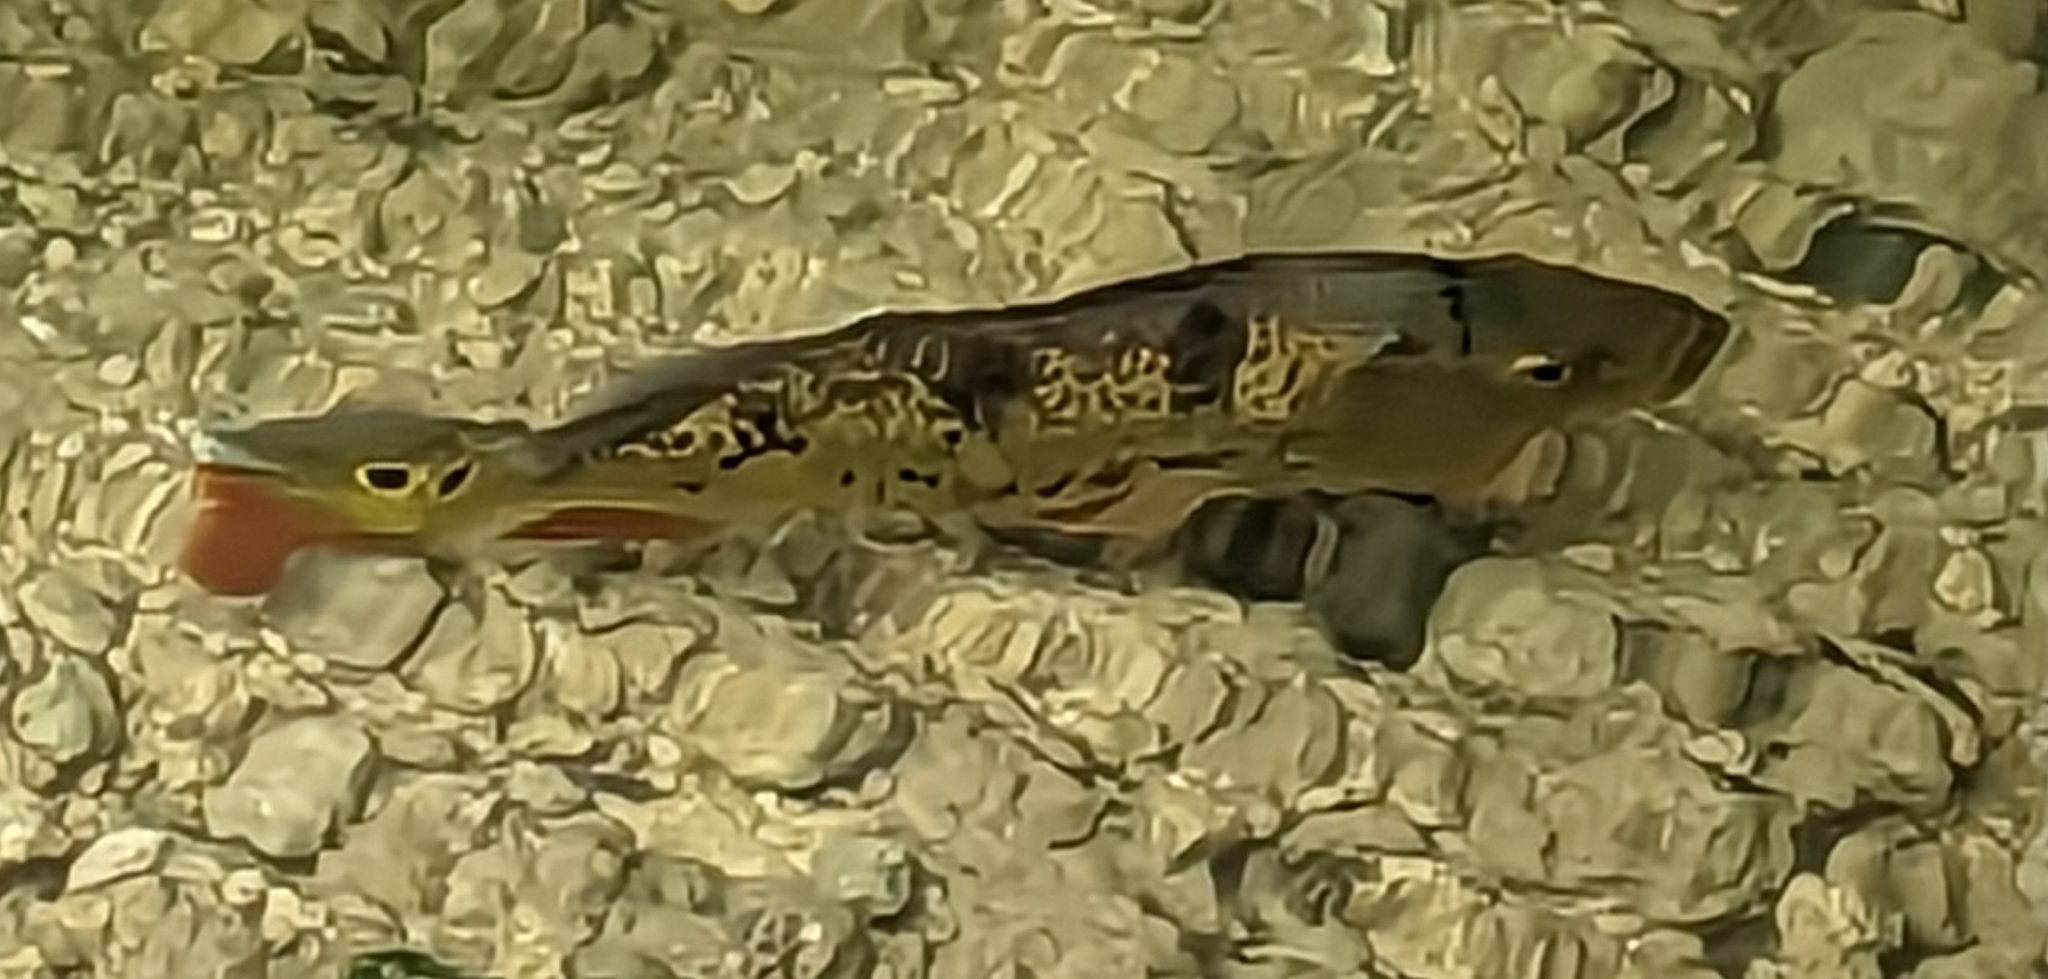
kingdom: Animalia
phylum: Chordata
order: Perciformes
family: Cichlidae
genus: Cichla
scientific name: Cichla ocellaris
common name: Peacock cichlid
